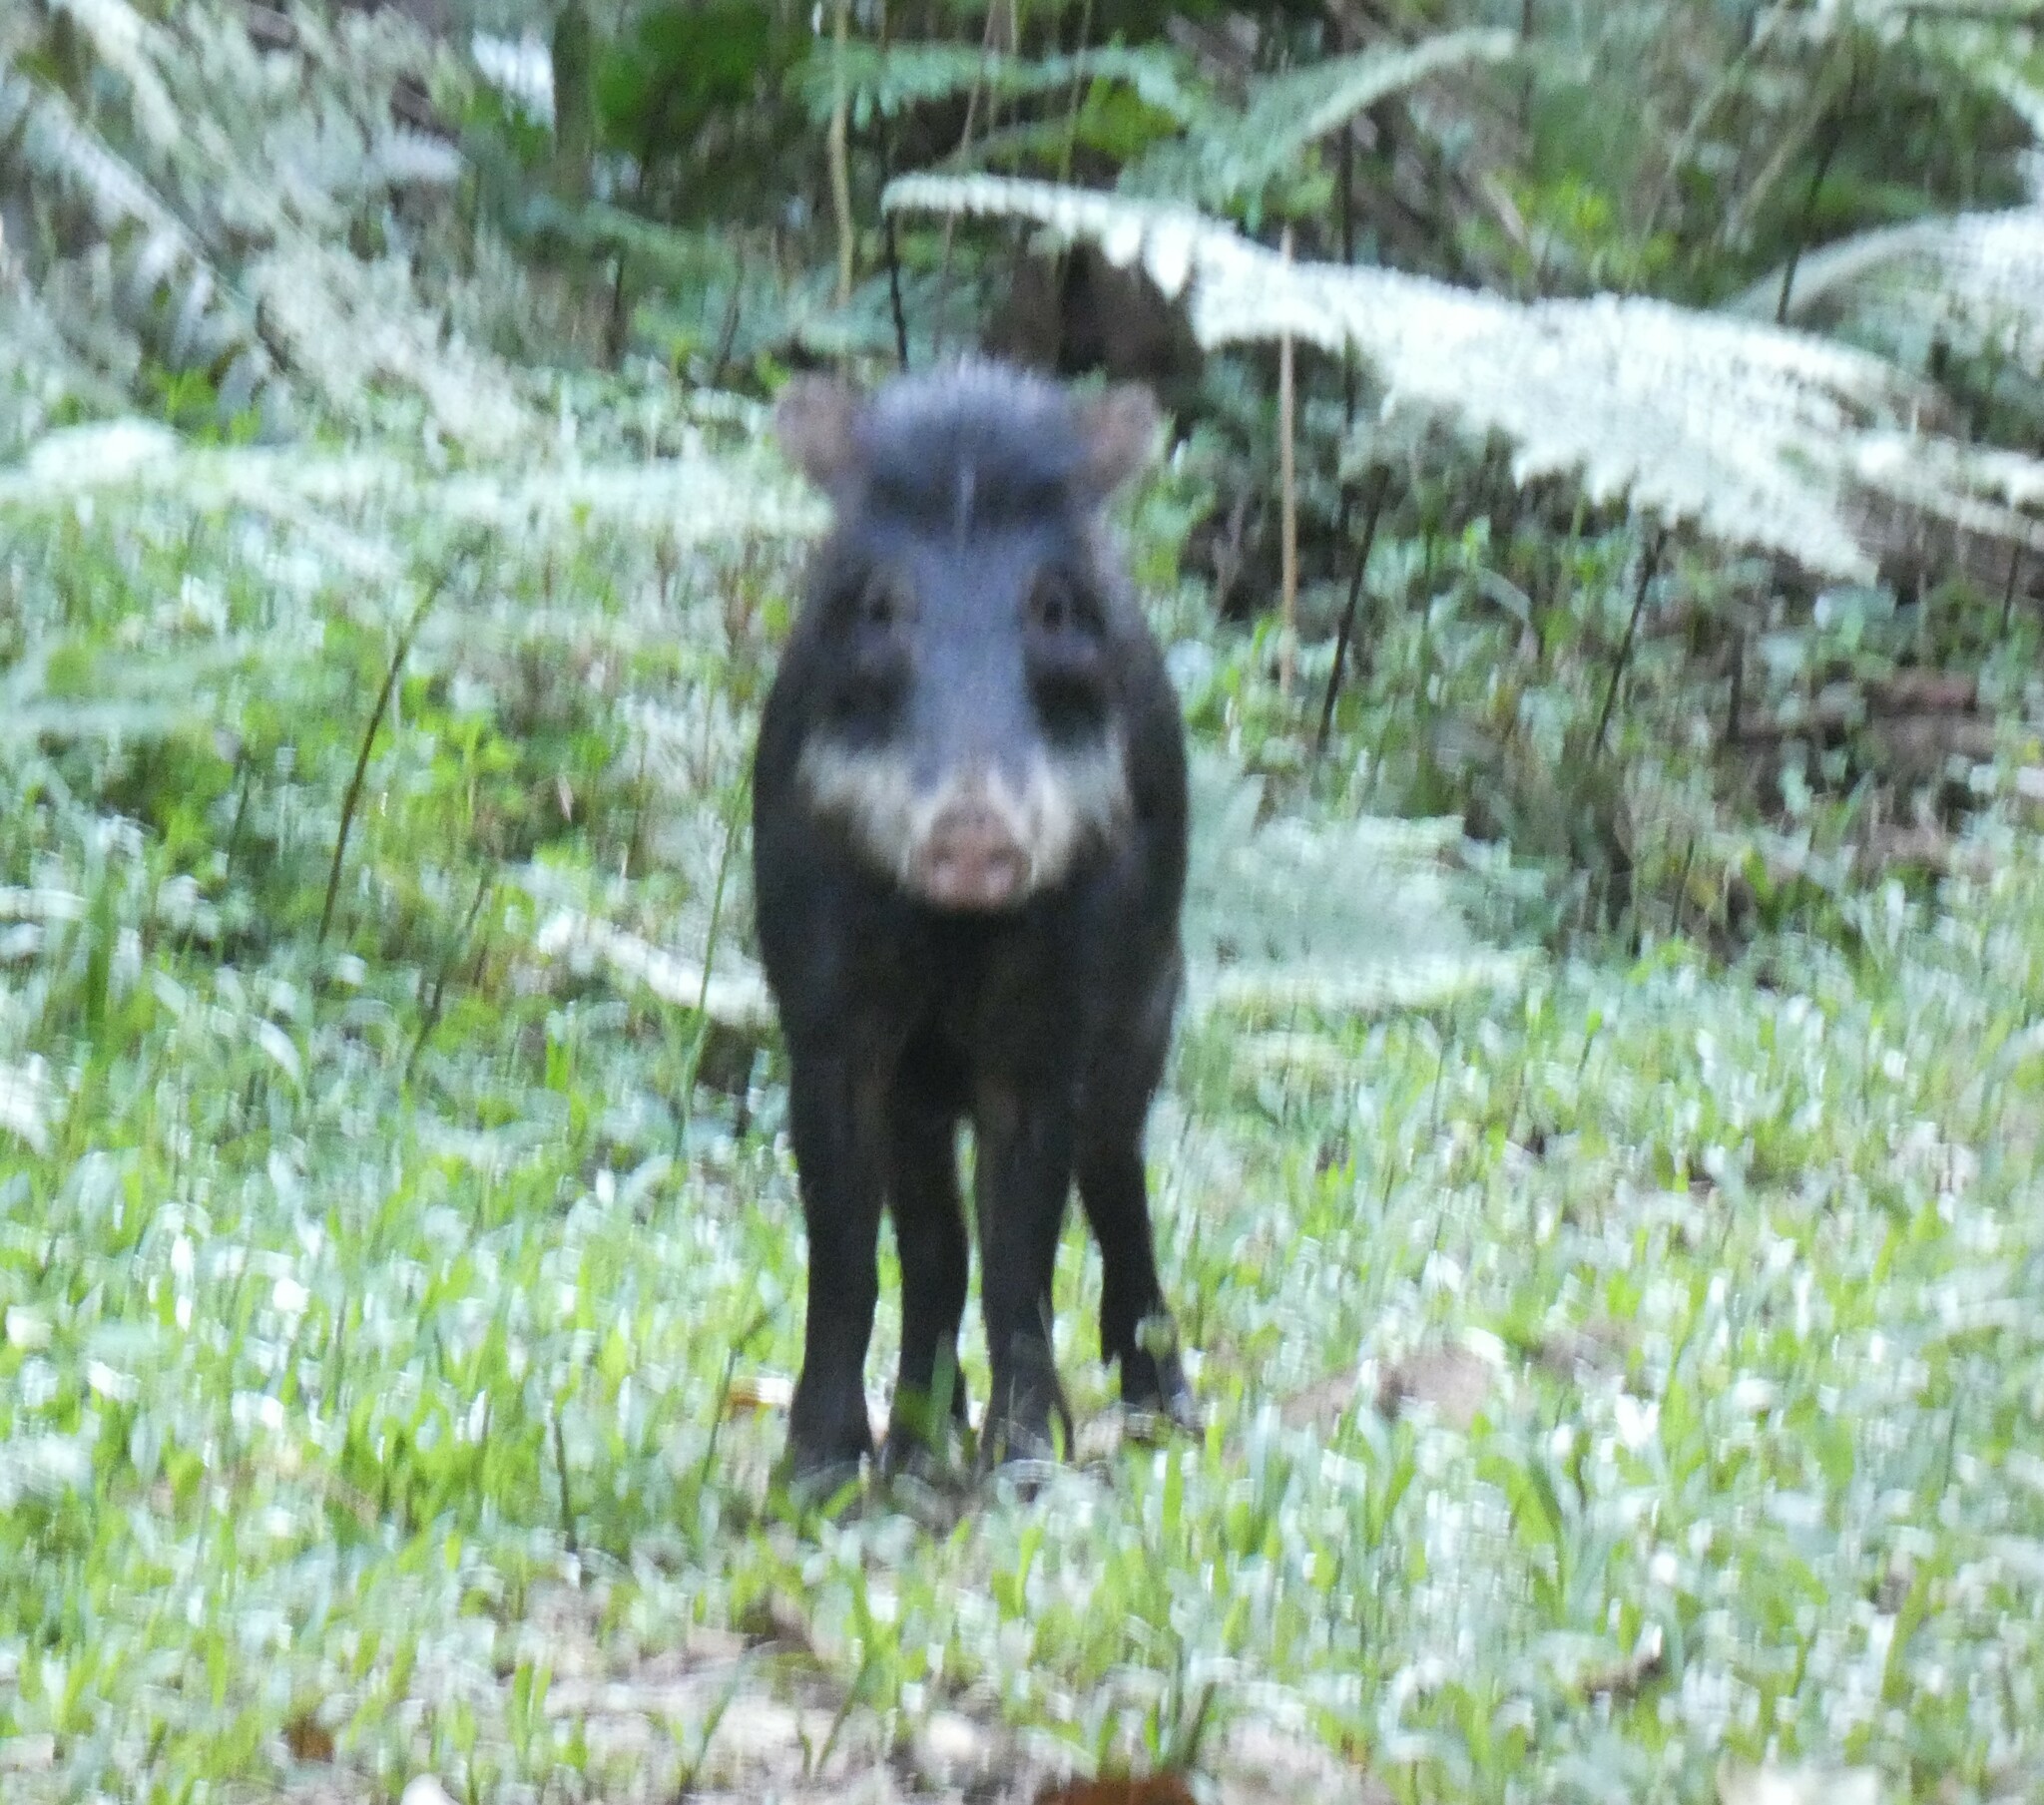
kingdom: Animalia
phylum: Chordata
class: Mammalia
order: Artiodactyla
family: Tayassuidae
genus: Tayassu
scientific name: Tayassu pecari
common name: White-lipped peccary
